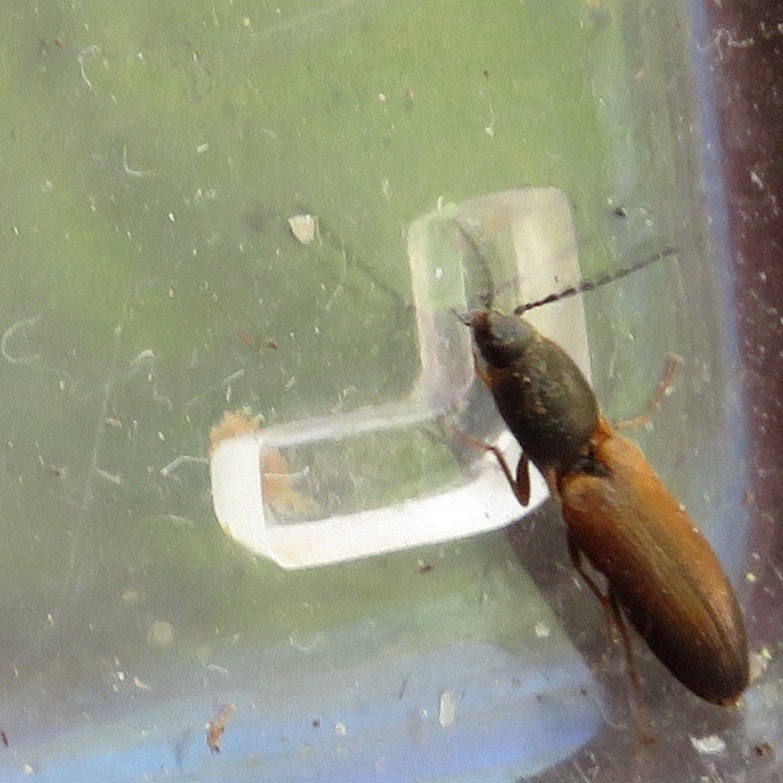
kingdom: Animalia
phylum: Arthropoda
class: Insecta
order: Coleoptera
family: Elateridae
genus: Dolerosomus
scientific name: Dolerosomus silaceus
